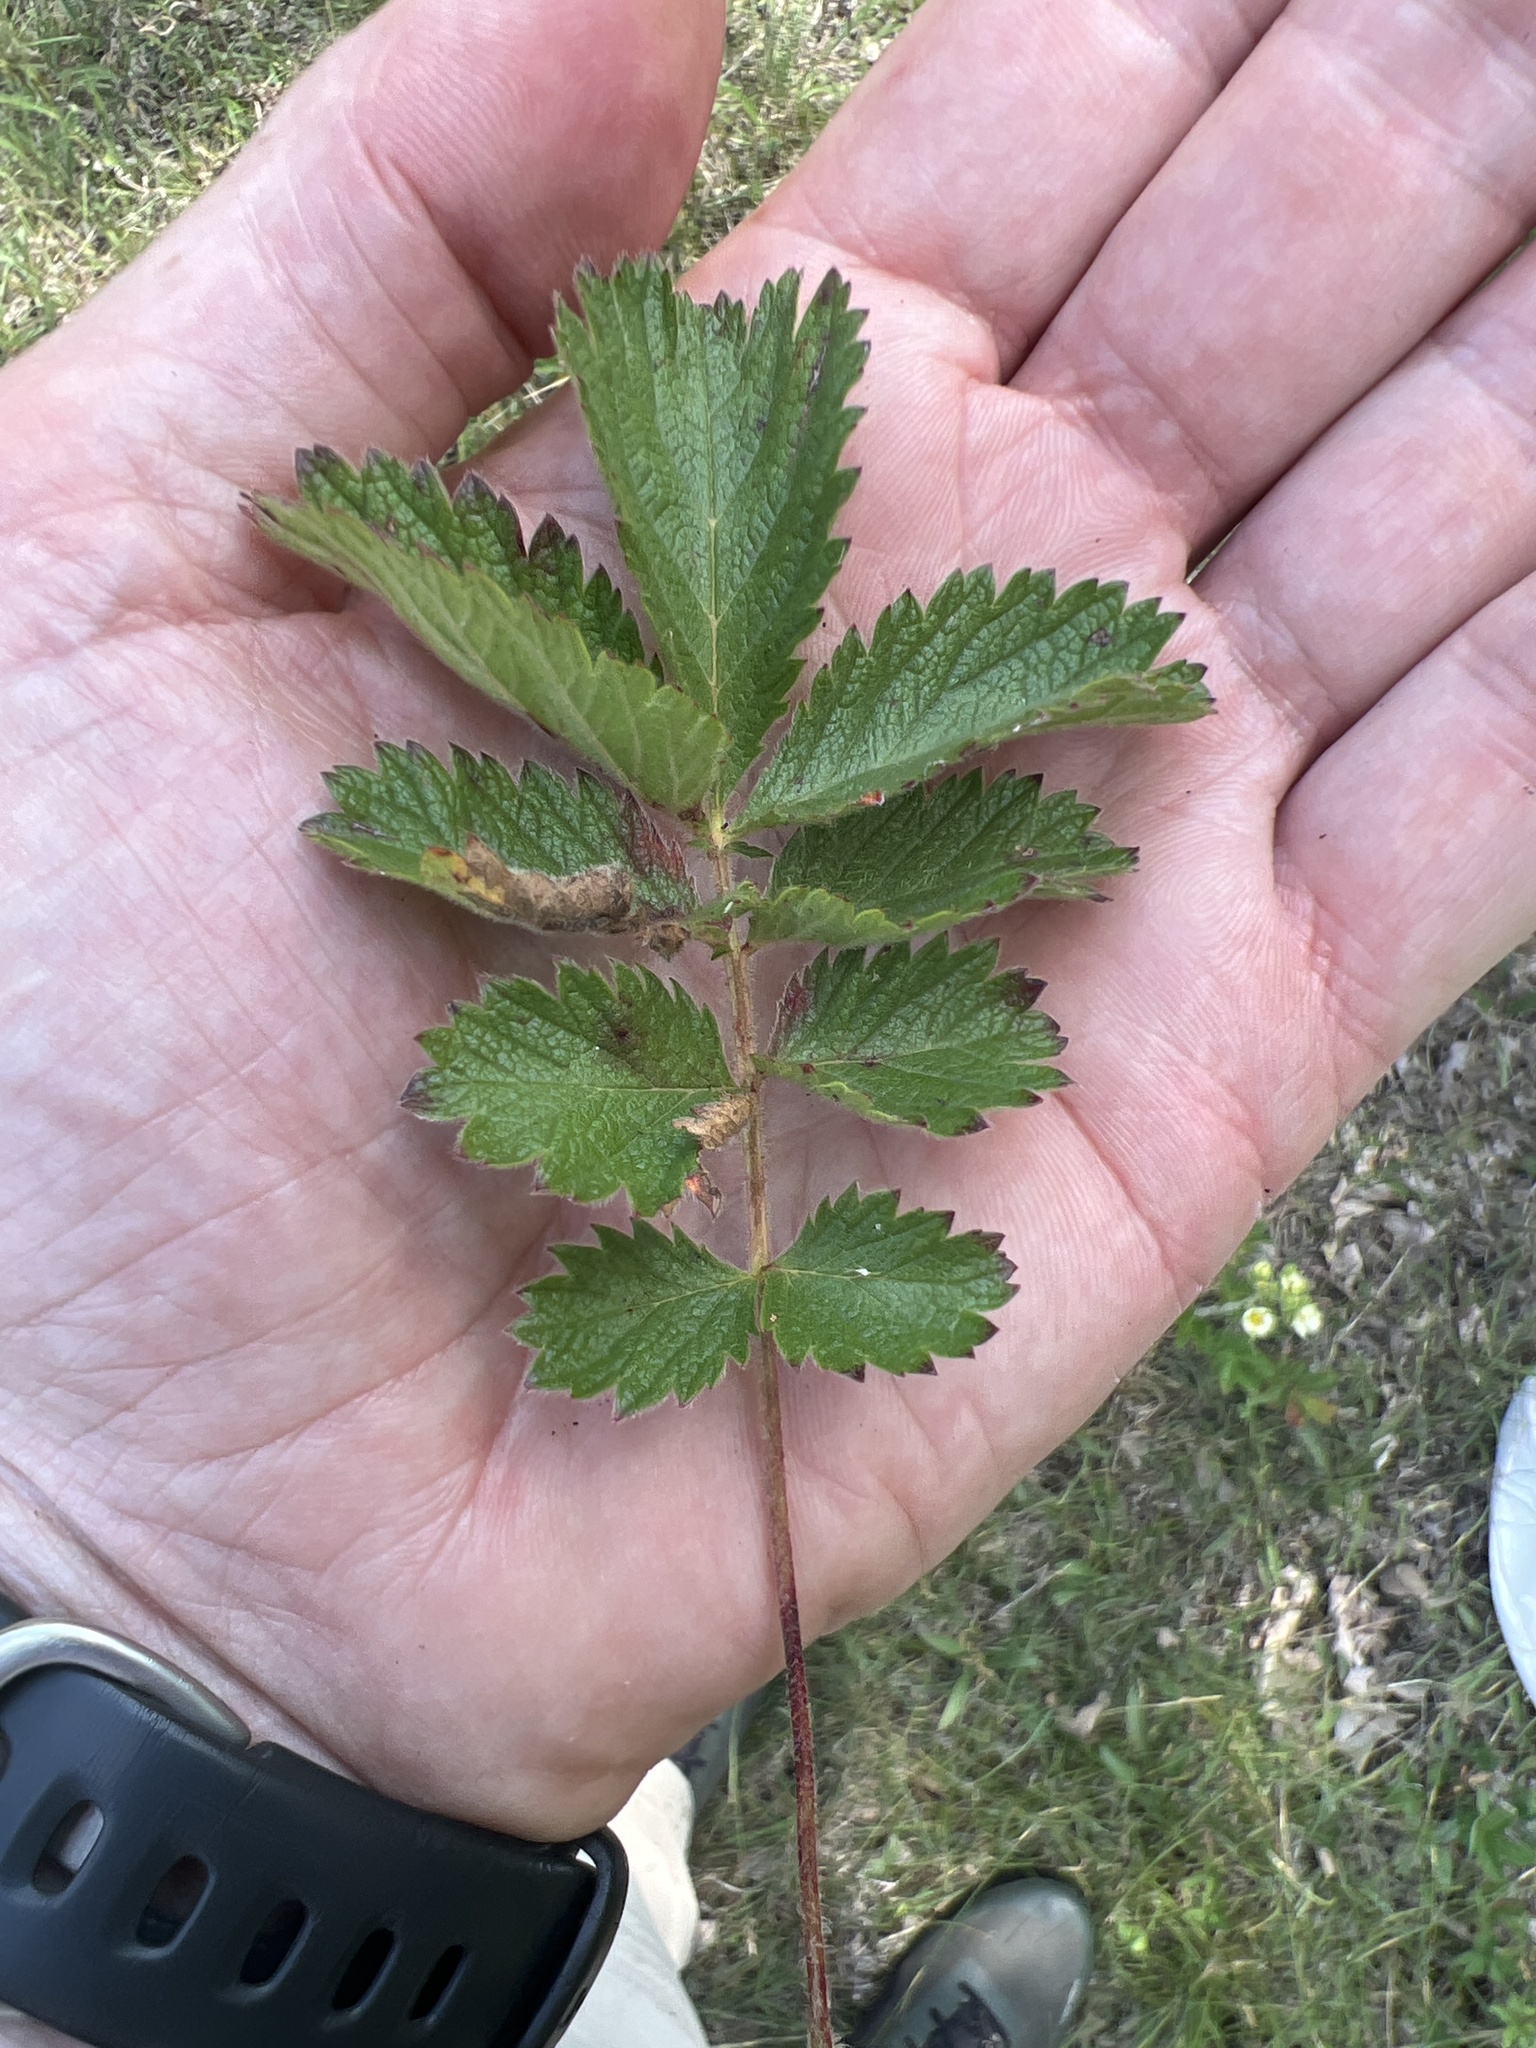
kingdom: Plantae
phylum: Tracheophyta
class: Magnoliopsida
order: Rosales
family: Rosaceae
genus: Drymocallis
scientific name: Drymocallis arguta
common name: Tall cinquefoil
